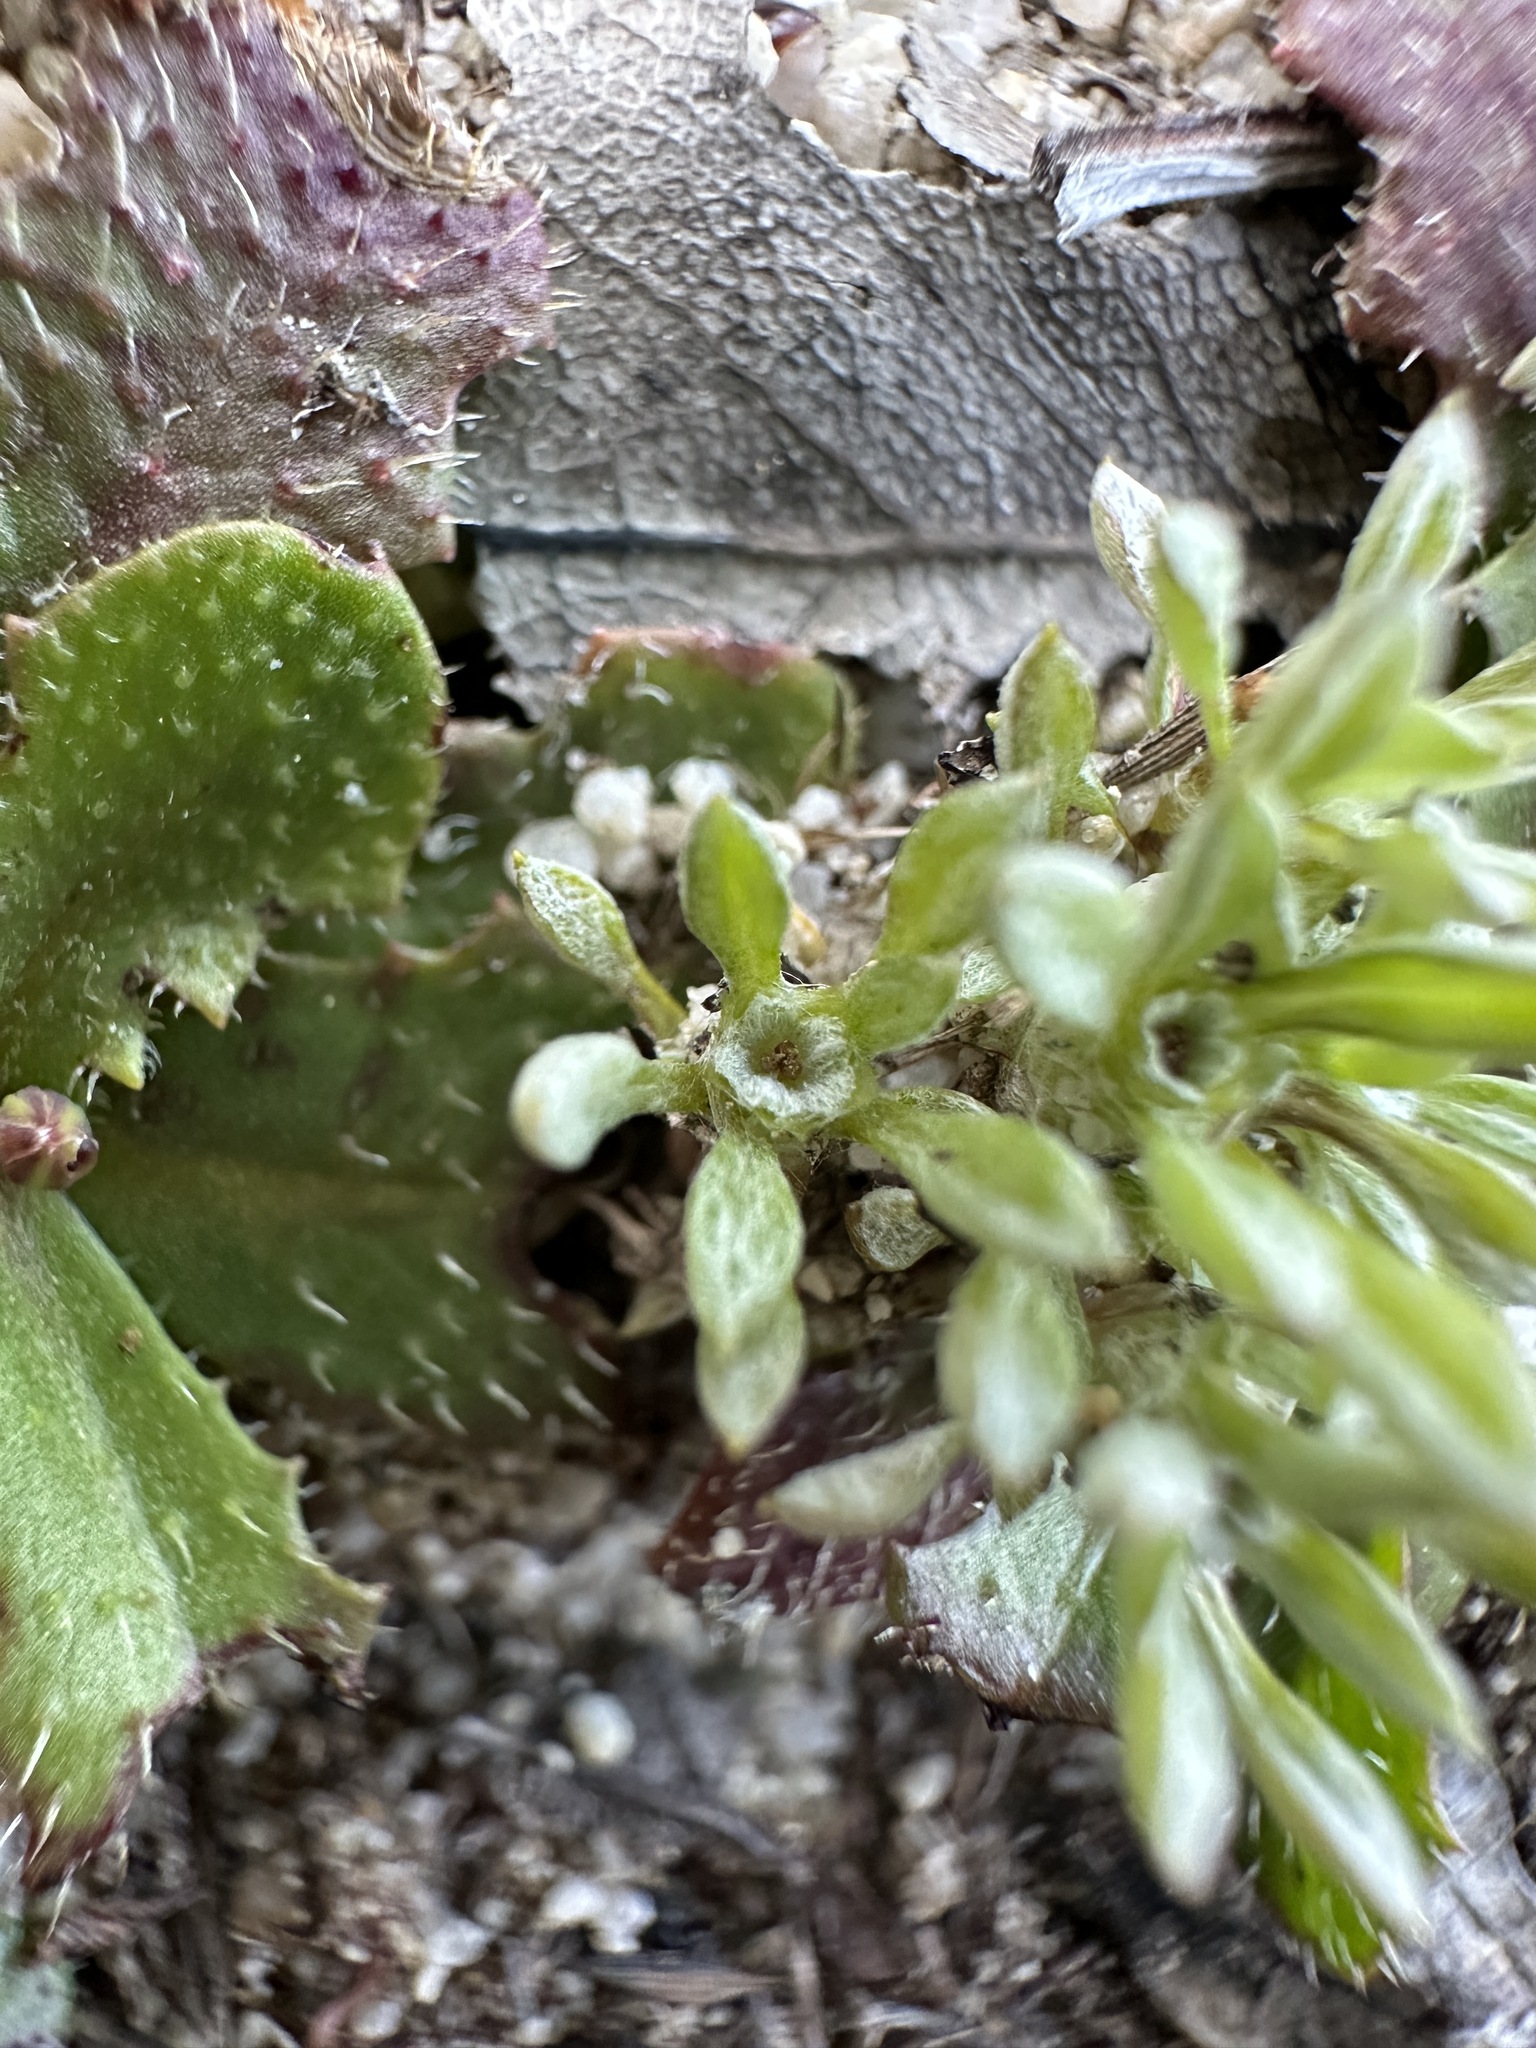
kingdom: Plantae
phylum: Tracheophyta
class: Magnoliopsida
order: Asterales
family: Asteraceae
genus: Hesperevax
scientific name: Hesperevax acaulis
